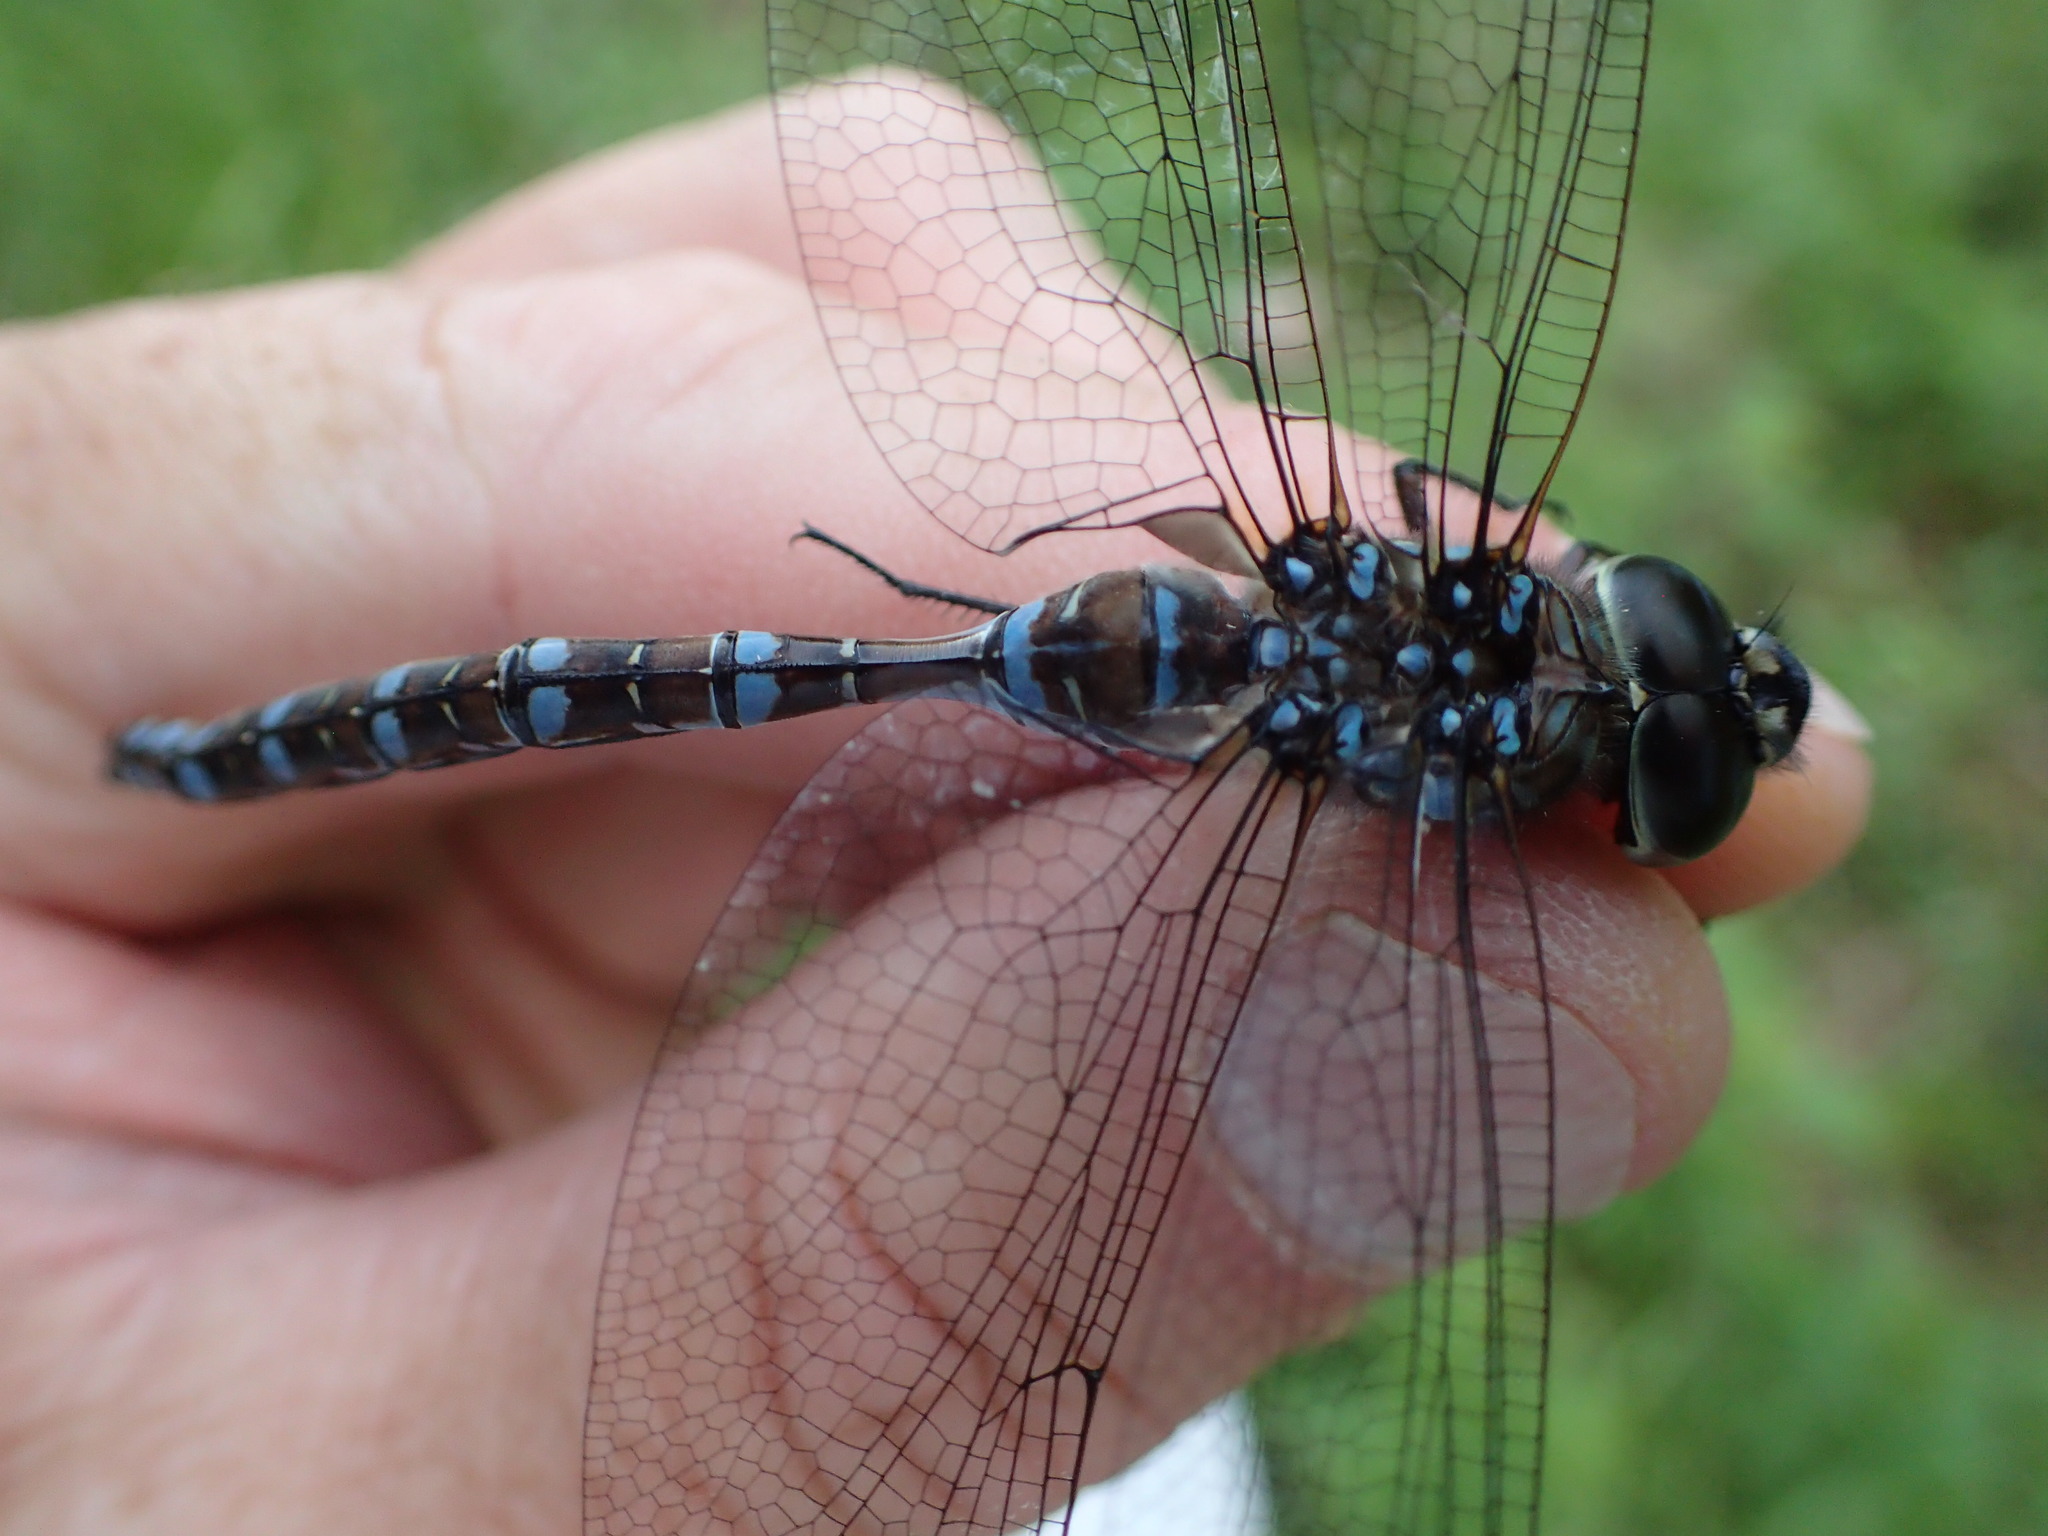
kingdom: Animalia
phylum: Arthropoda
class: Insecta
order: Odonata
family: Aeshnidae
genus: Aeshna
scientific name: Aeshna canadensis
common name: Canada darner
